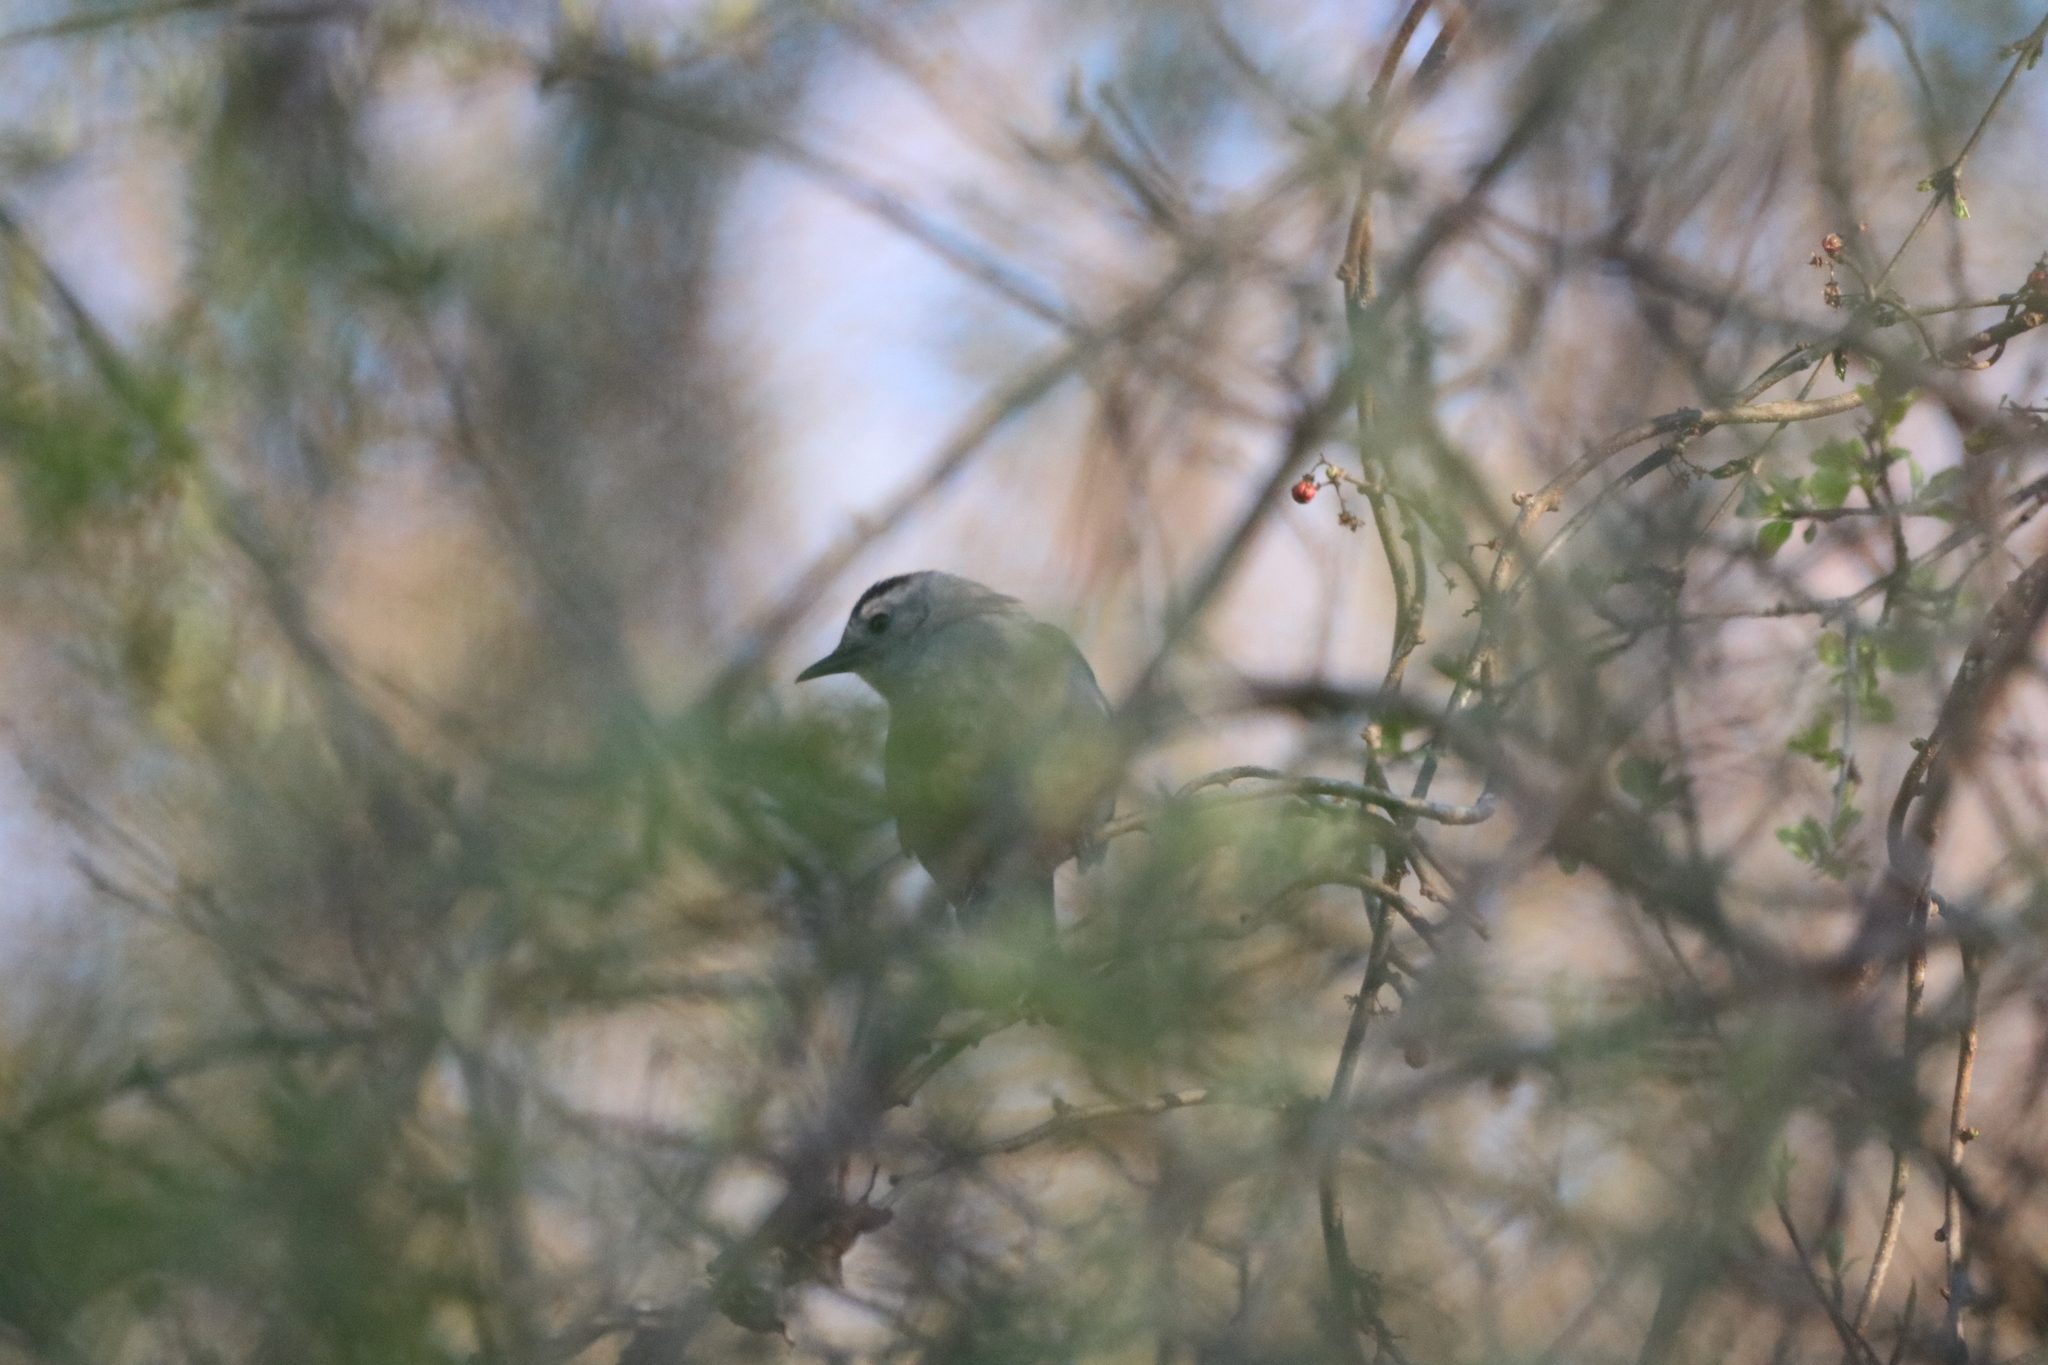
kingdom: Animalia
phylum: Chordata
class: Aves
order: Passeriformes
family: Mimidae
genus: Dumetella
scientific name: Dumetella carolinensis
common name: Gray catbird
